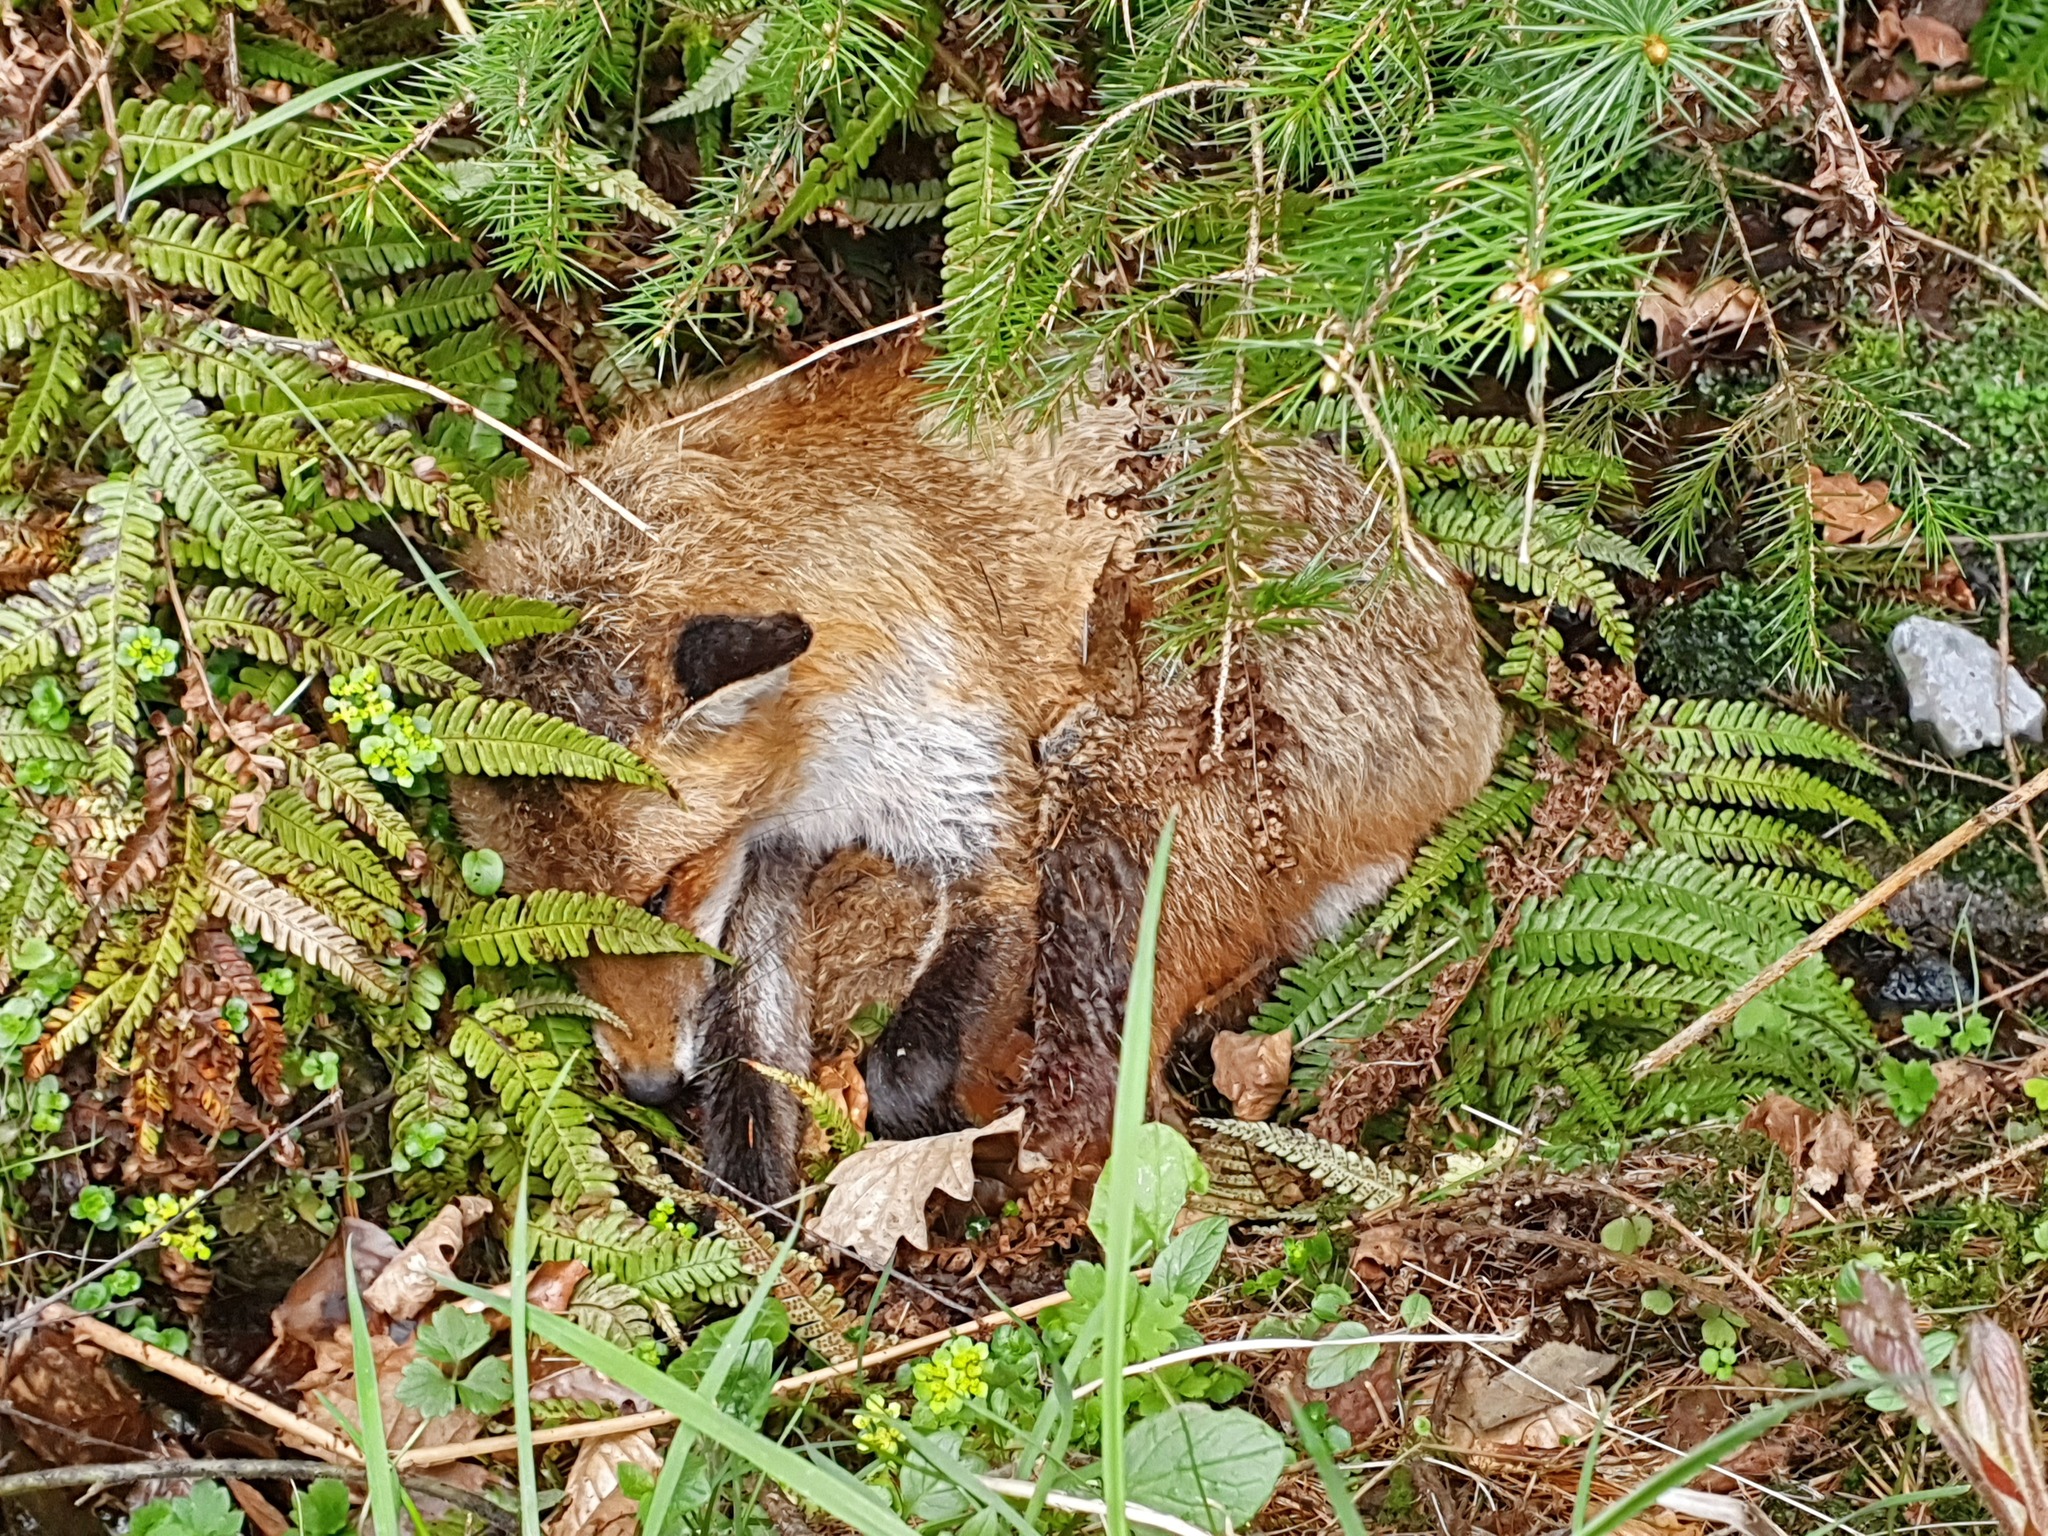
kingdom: Animalia
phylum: Chordata
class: Mammalia
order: Carnivora
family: Canidae
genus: Vulpes
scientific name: Vulpes vulpes
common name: Red fox
